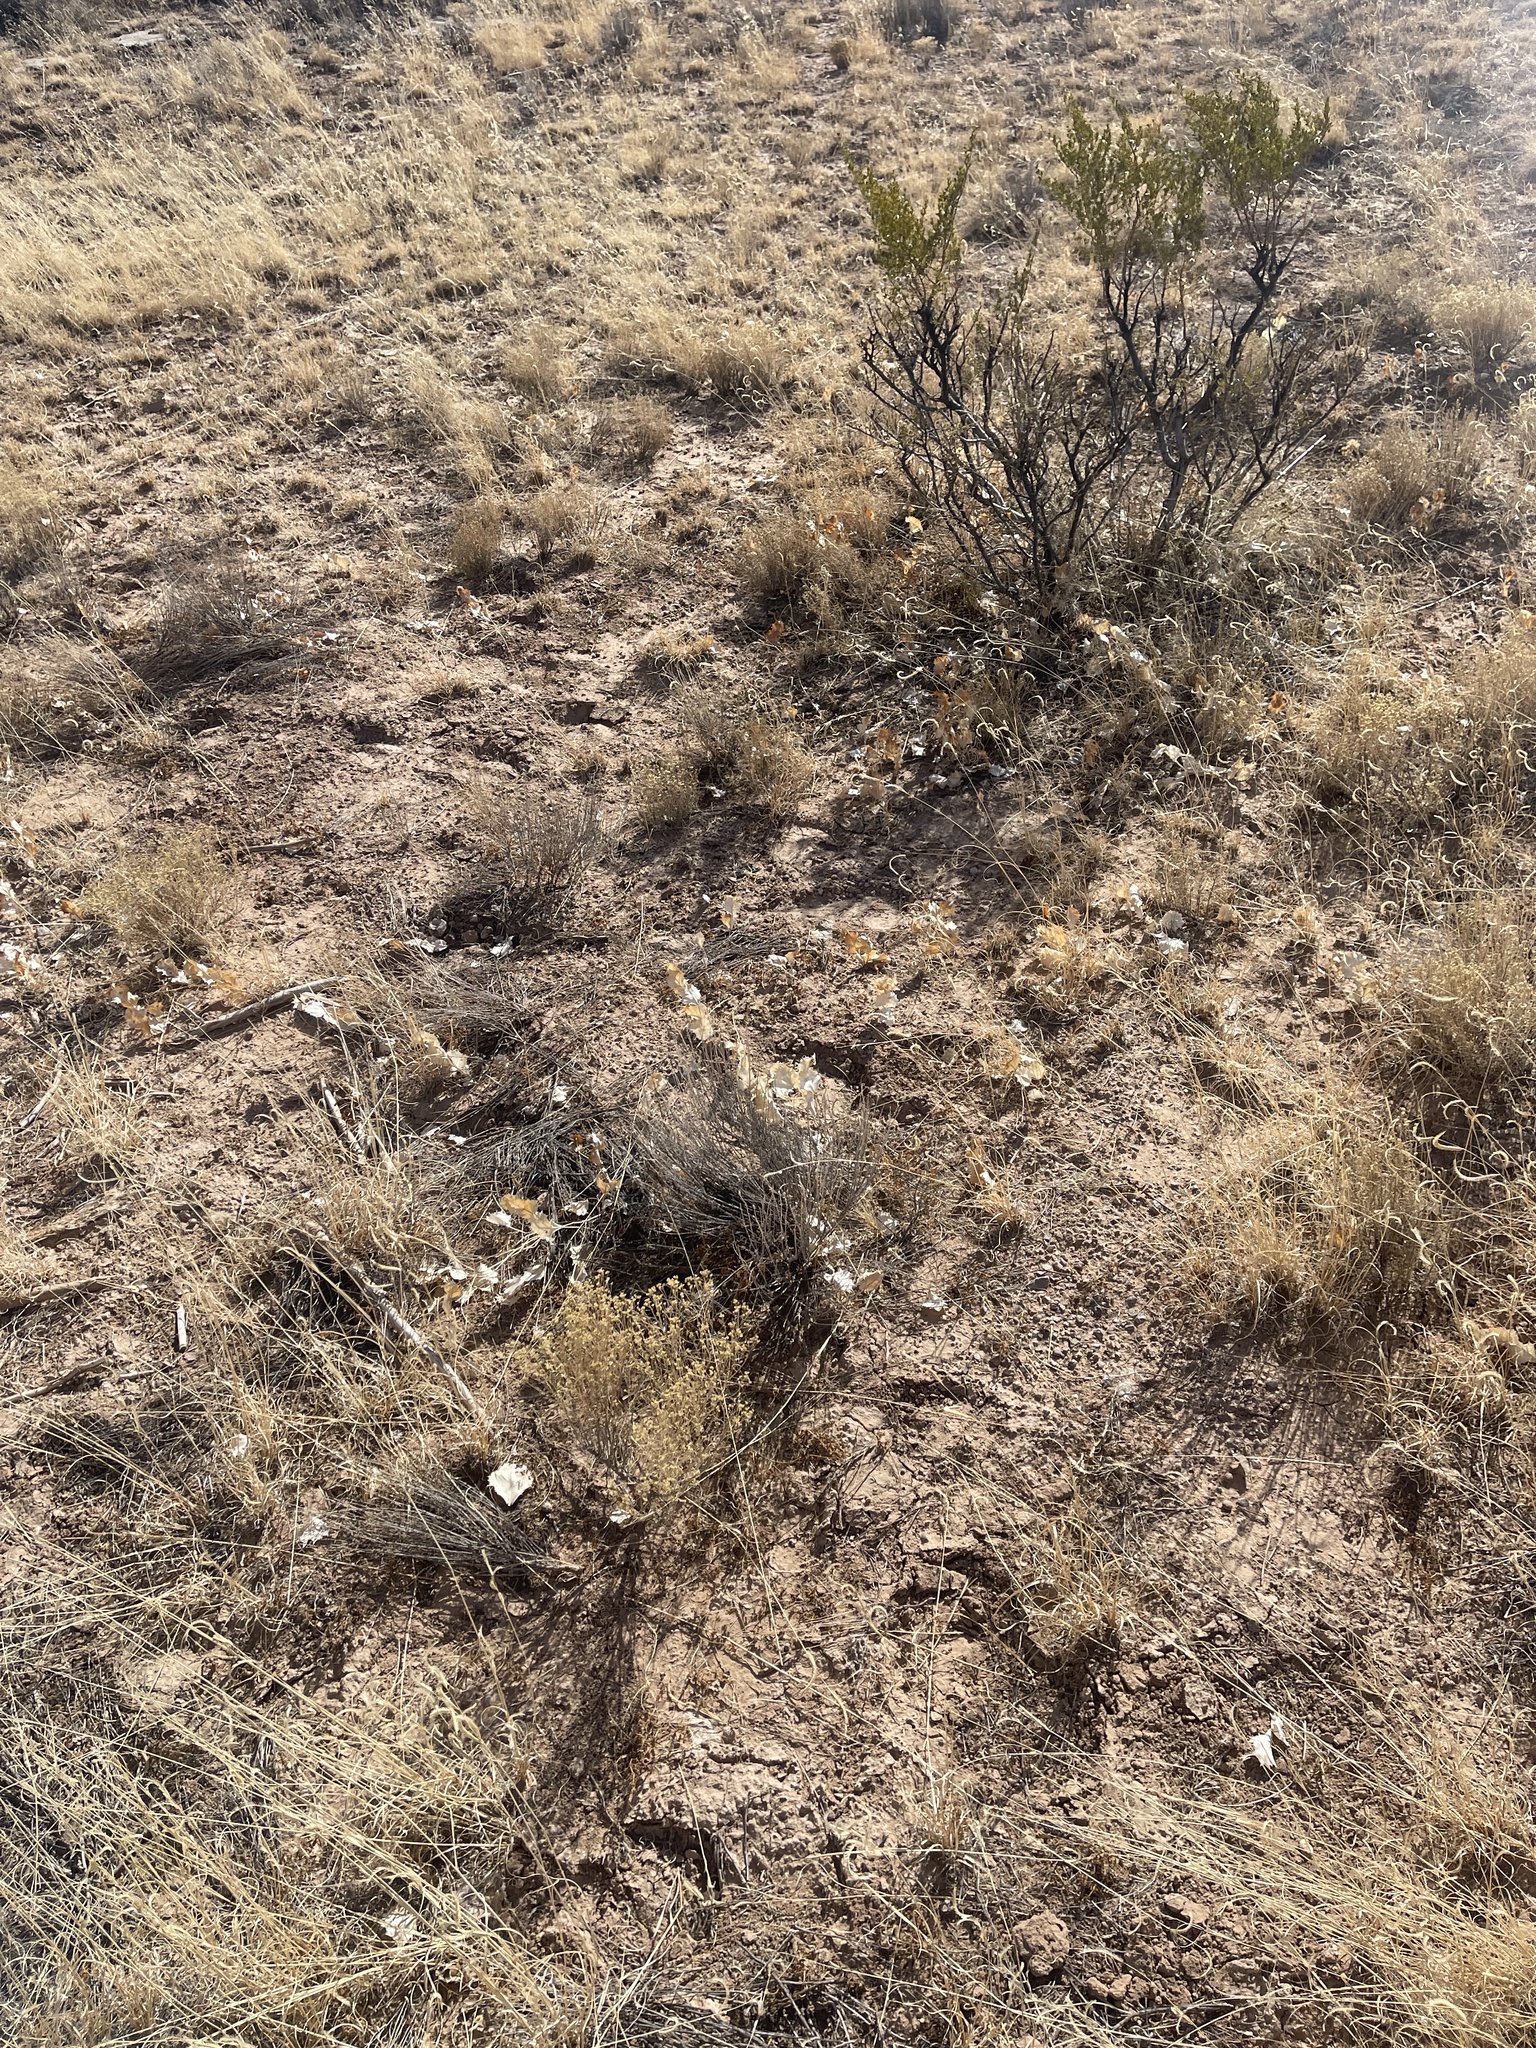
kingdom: Plantae
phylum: Tracheophyta
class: Magnoliopsida
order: Asterales
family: Asteraceae
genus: Acourtia
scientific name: Acourtia nana
